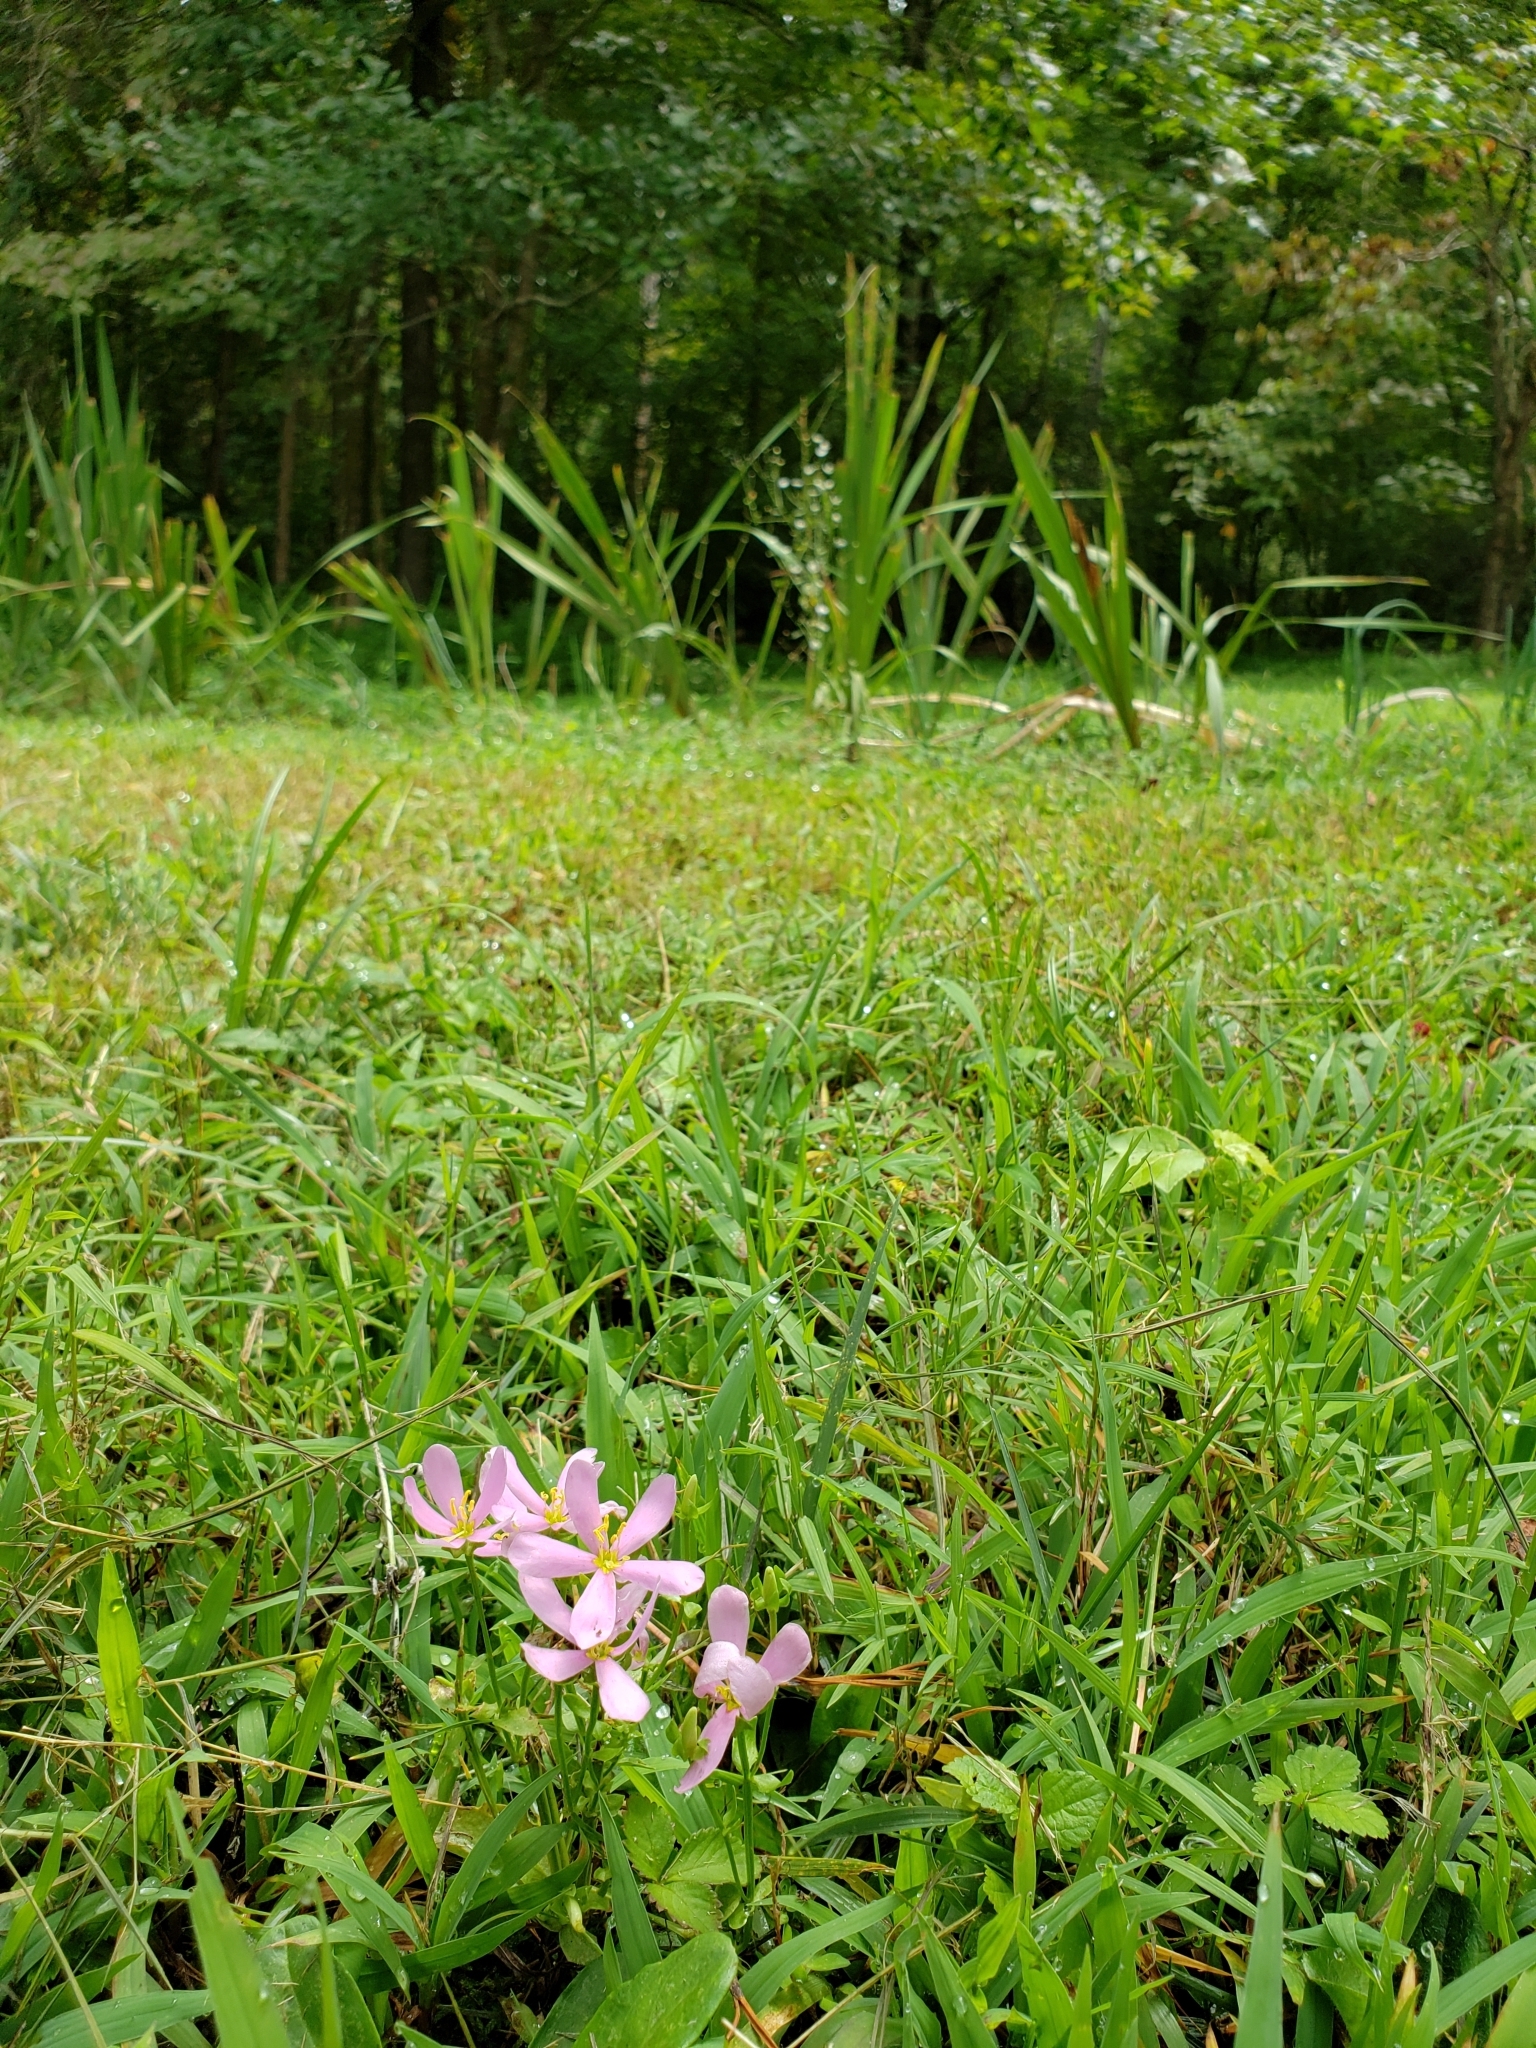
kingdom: Plantae
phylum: Tracheophyta
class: Magnoliopsida
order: Gentianales
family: Gentianaceae
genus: Sabatia
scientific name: Sabatia angularis
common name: Rose-pink
